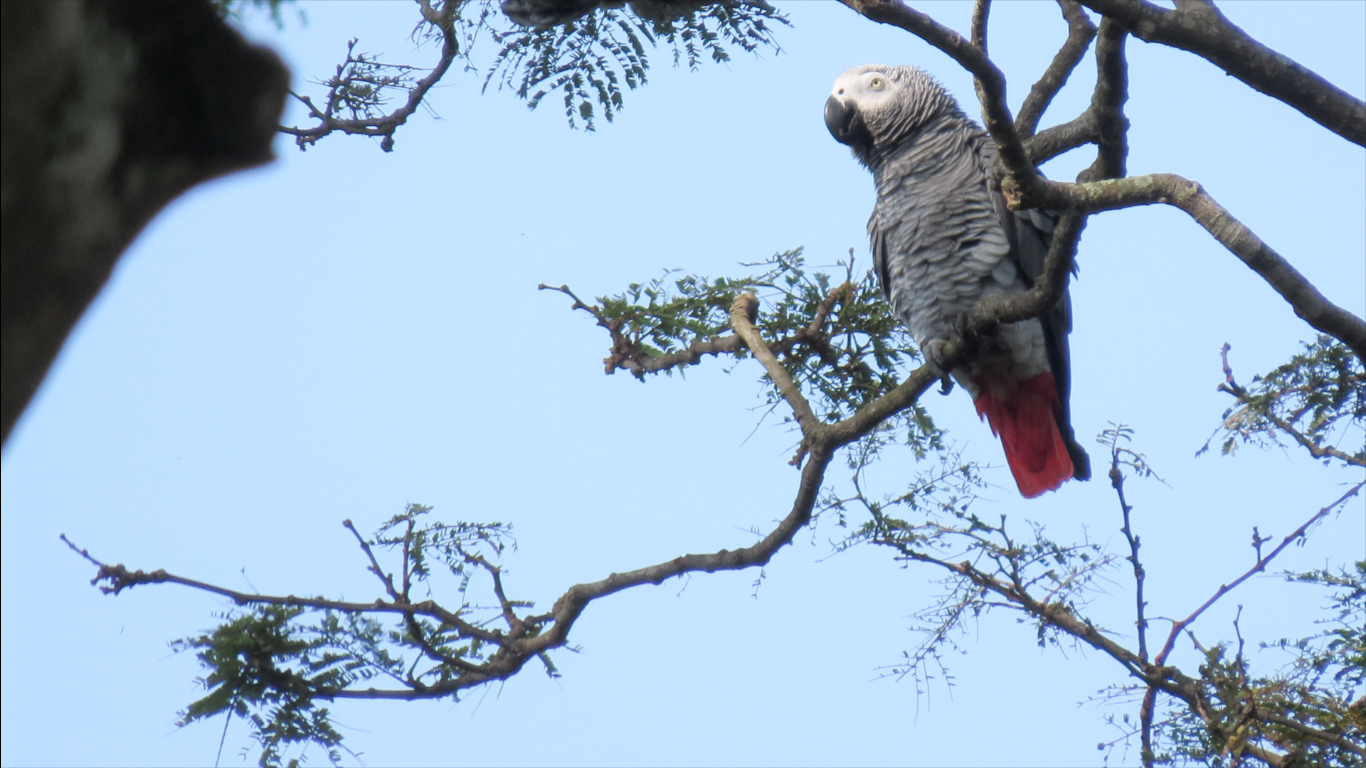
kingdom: Animalia
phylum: Chordata
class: Aves
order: Psittaciformes
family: Psittacidae
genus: Psittacus
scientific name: Psittacus erithacus
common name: Grey parrot
